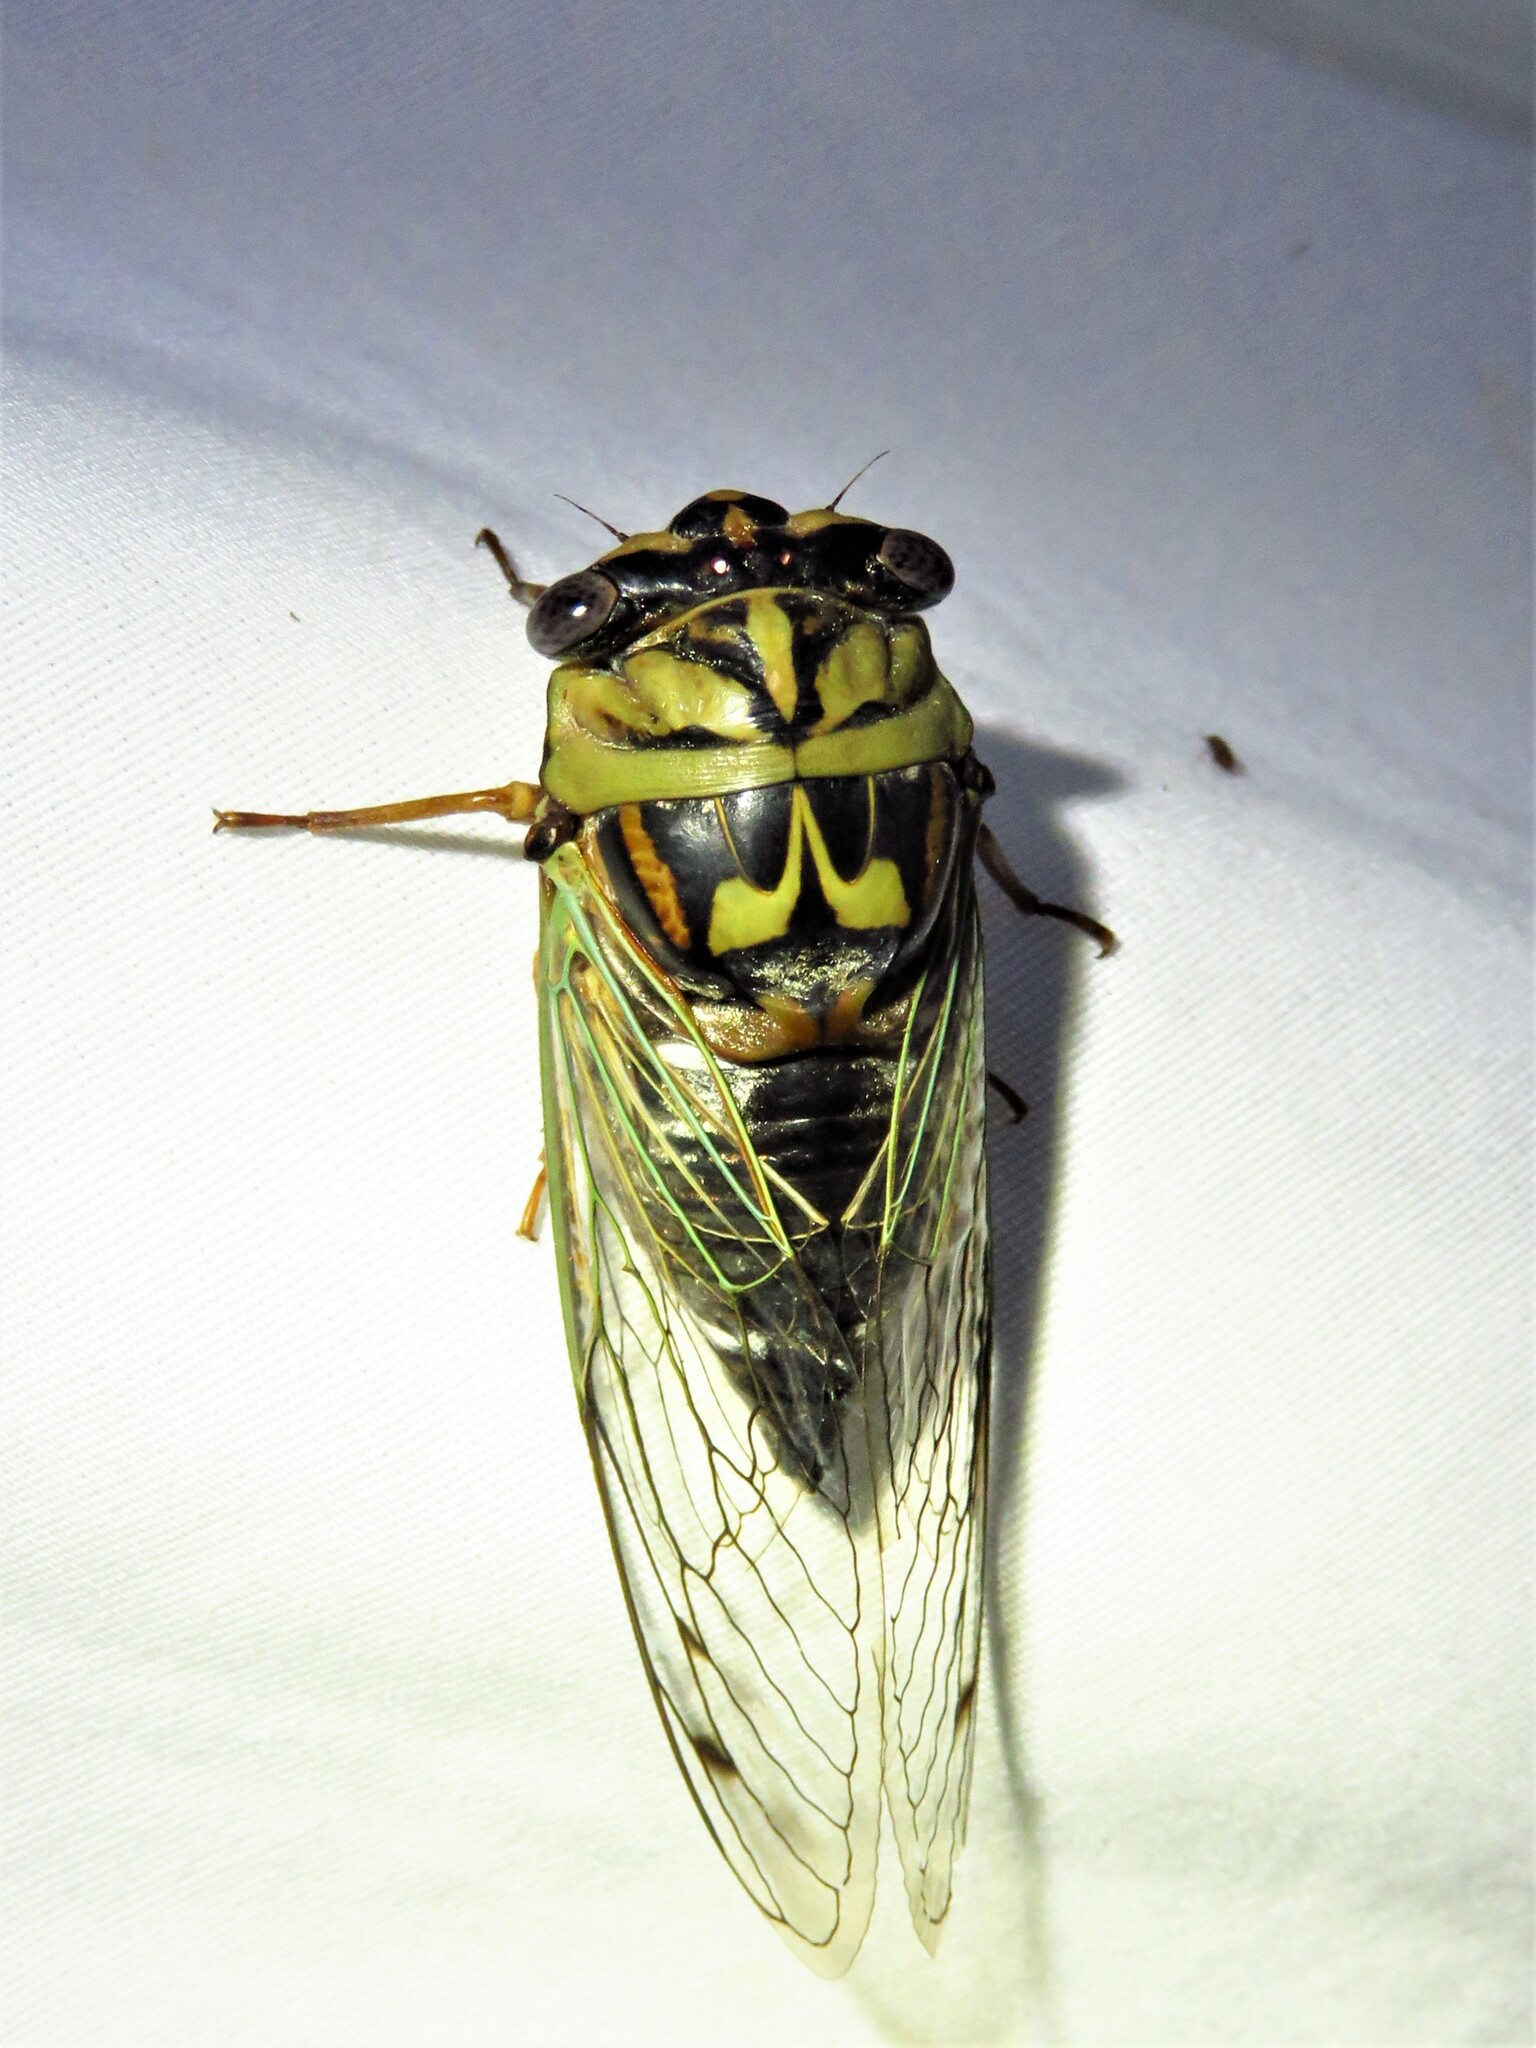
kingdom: Animalia
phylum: Arthropoda
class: Insecta
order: Hemiptera
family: Cicadidae
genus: Megatibicen
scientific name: Megatibicen resh
